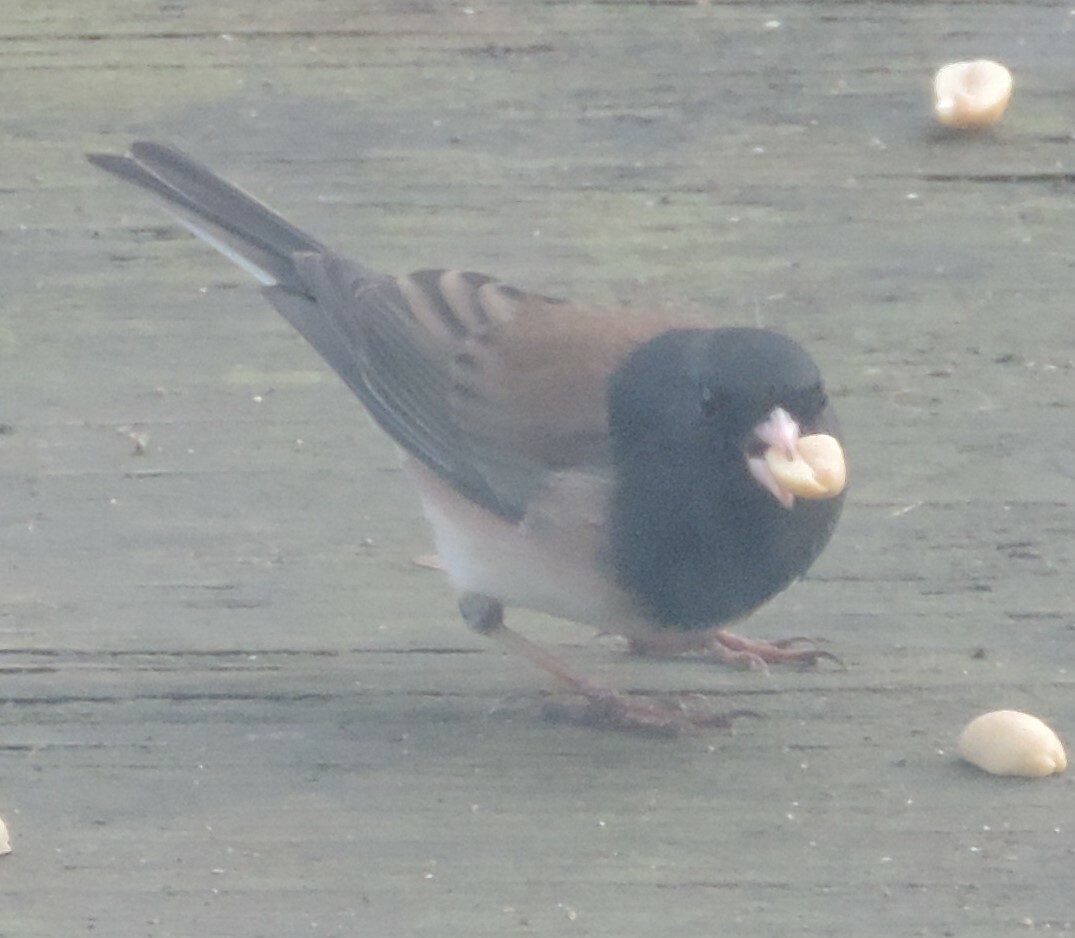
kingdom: Animalia
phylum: Chordata
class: Aves
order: Passeriformes
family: Passerellidae
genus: Junco
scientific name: Junco hyemalis
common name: Dark-eyed junco
